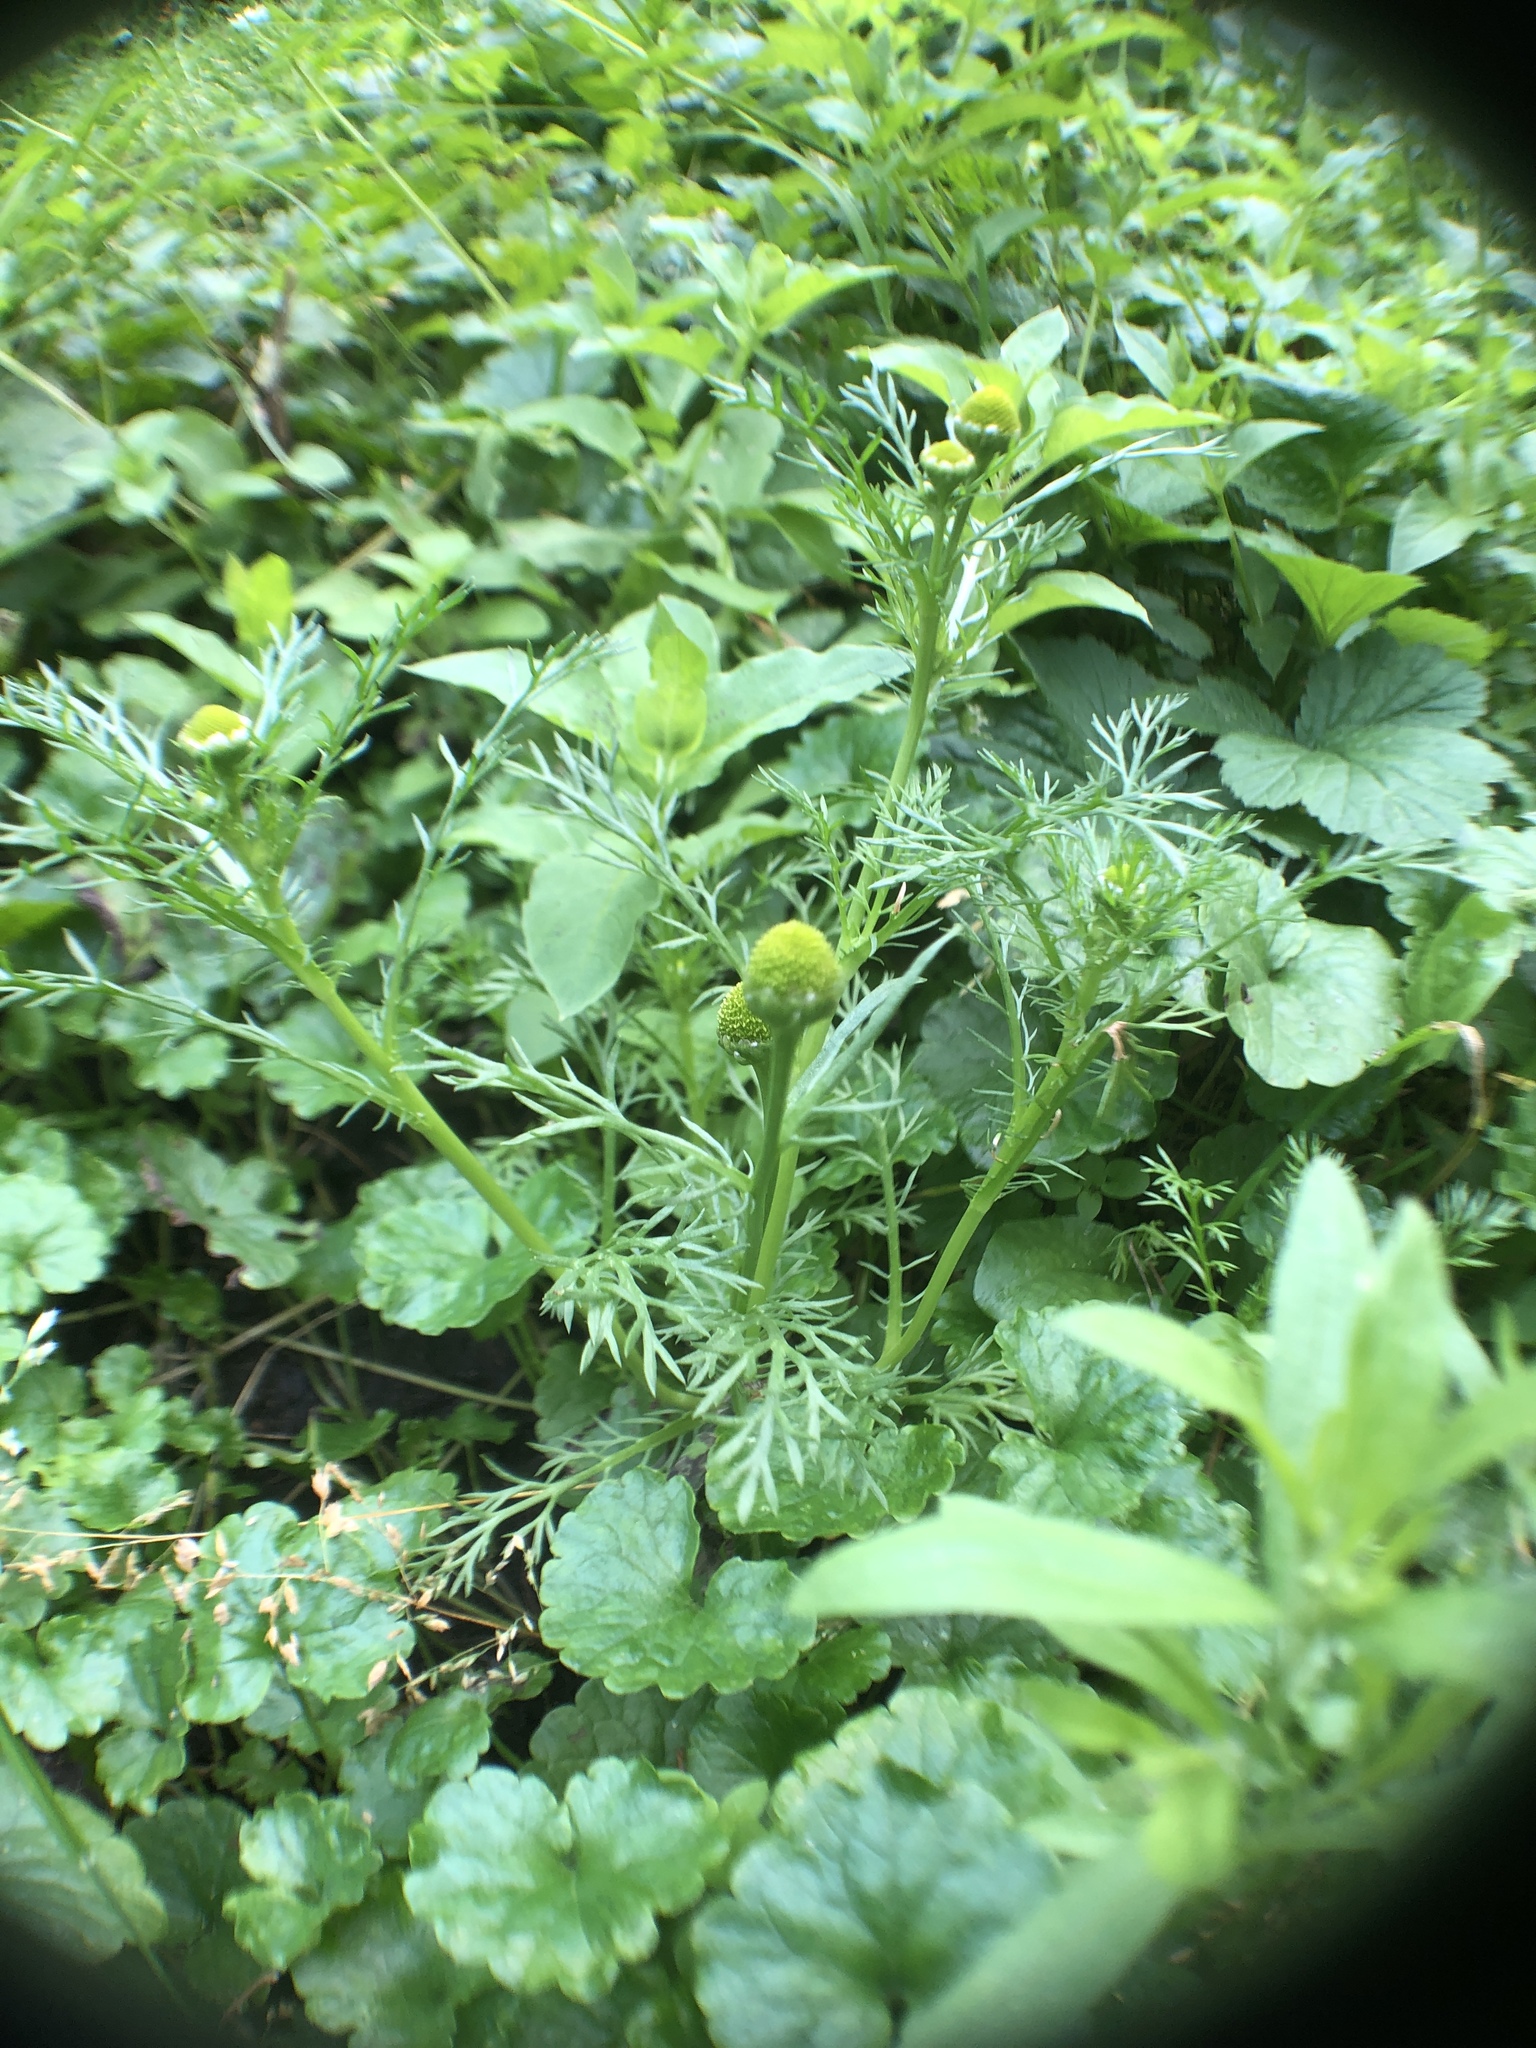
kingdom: Plantae
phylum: Tracheophyta
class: Magnoliopsida
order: Asterales
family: Asteraceae
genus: Matricaria
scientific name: Matricaria discoidea
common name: Disc mayweed
